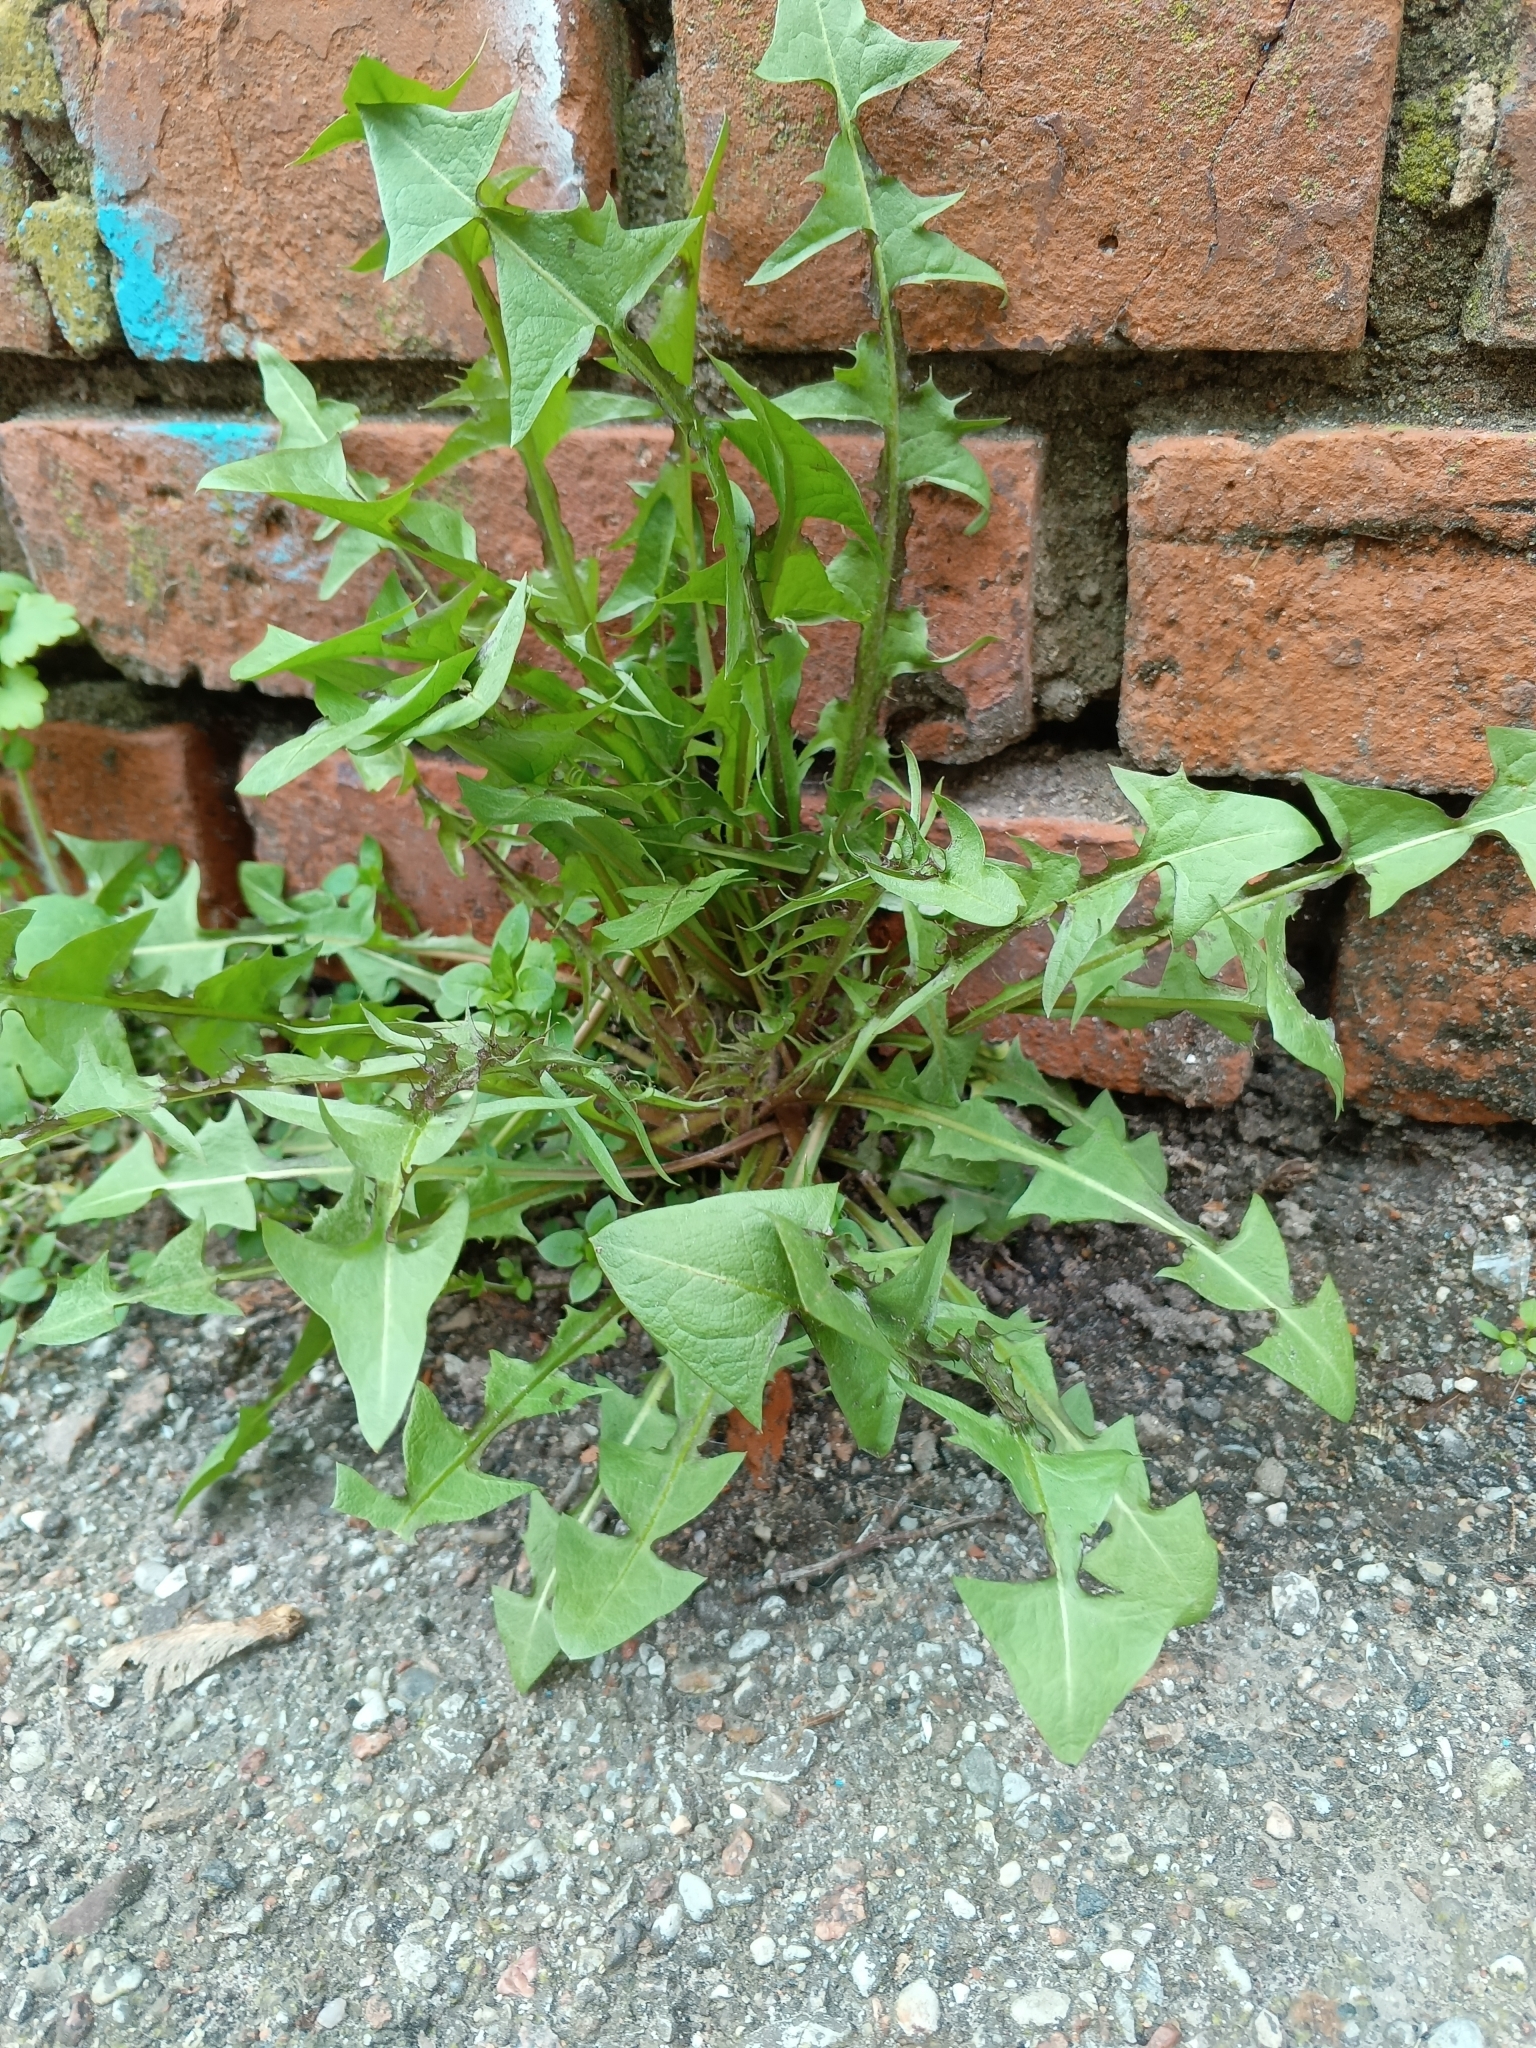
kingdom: Plantae
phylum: Tracheophyta
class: Magnoliopsida
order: Asterales
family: Asteraceae
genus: Taraxacum
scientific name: Taraxacum officinale
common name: Common dandelion
